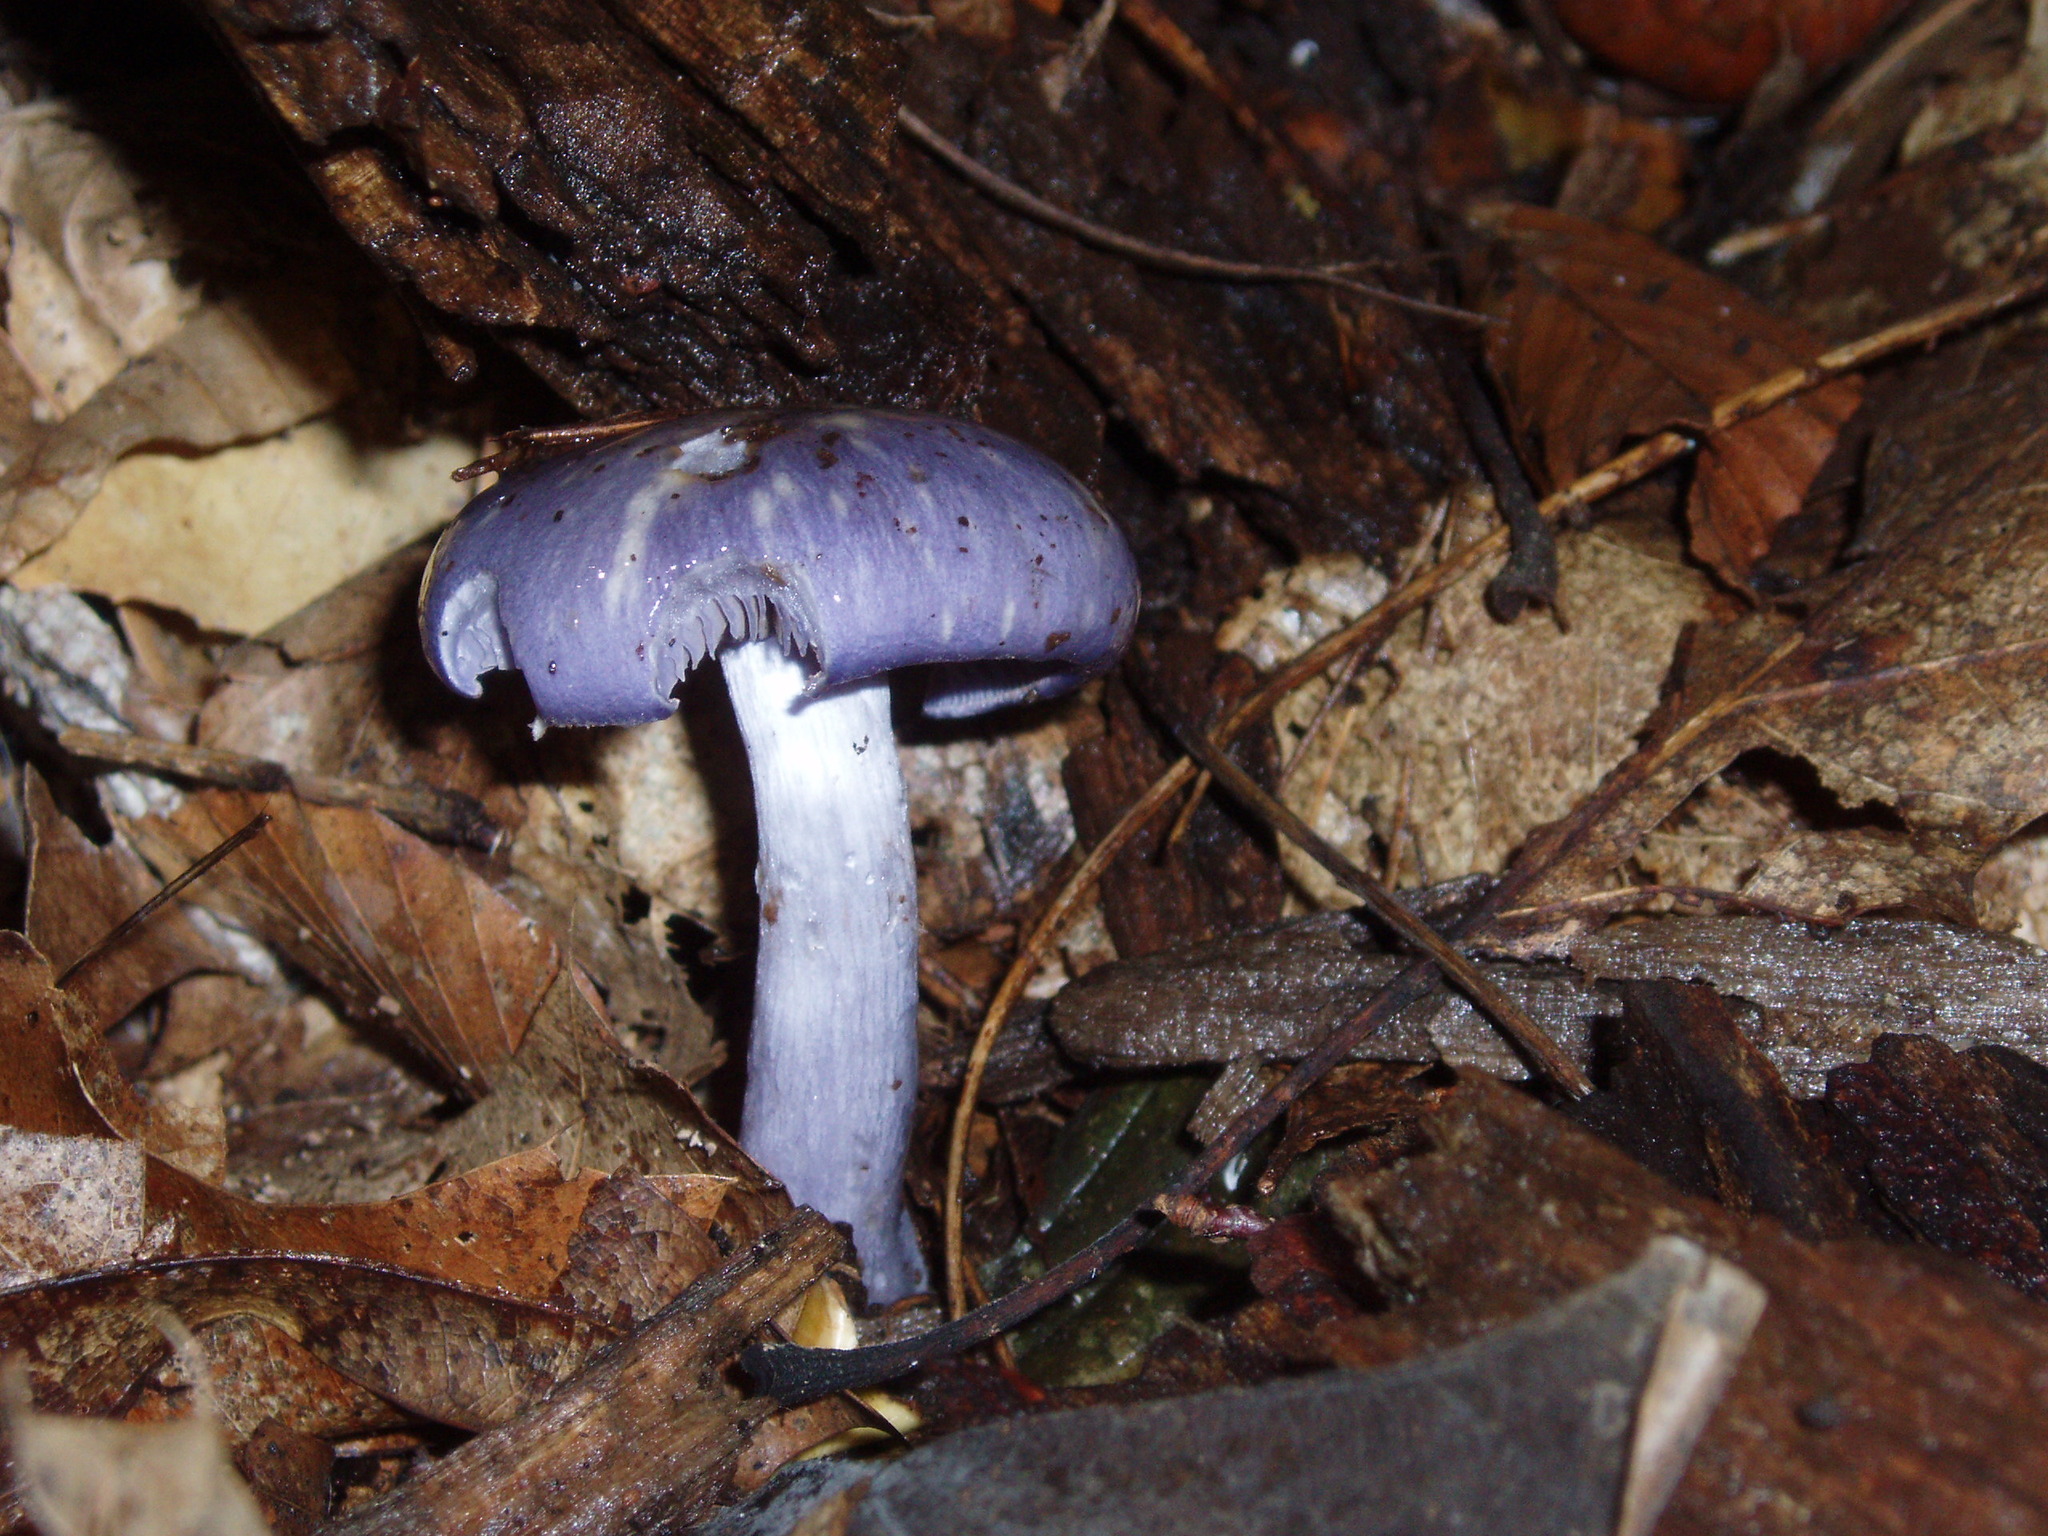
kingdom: Fungi
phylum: Basidiomycota
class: Agaricomycetes
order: Agaricales
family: Cortinariaceae
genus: Cortinarius
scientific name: Cortinarius iodes
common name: Viscid violet cort
